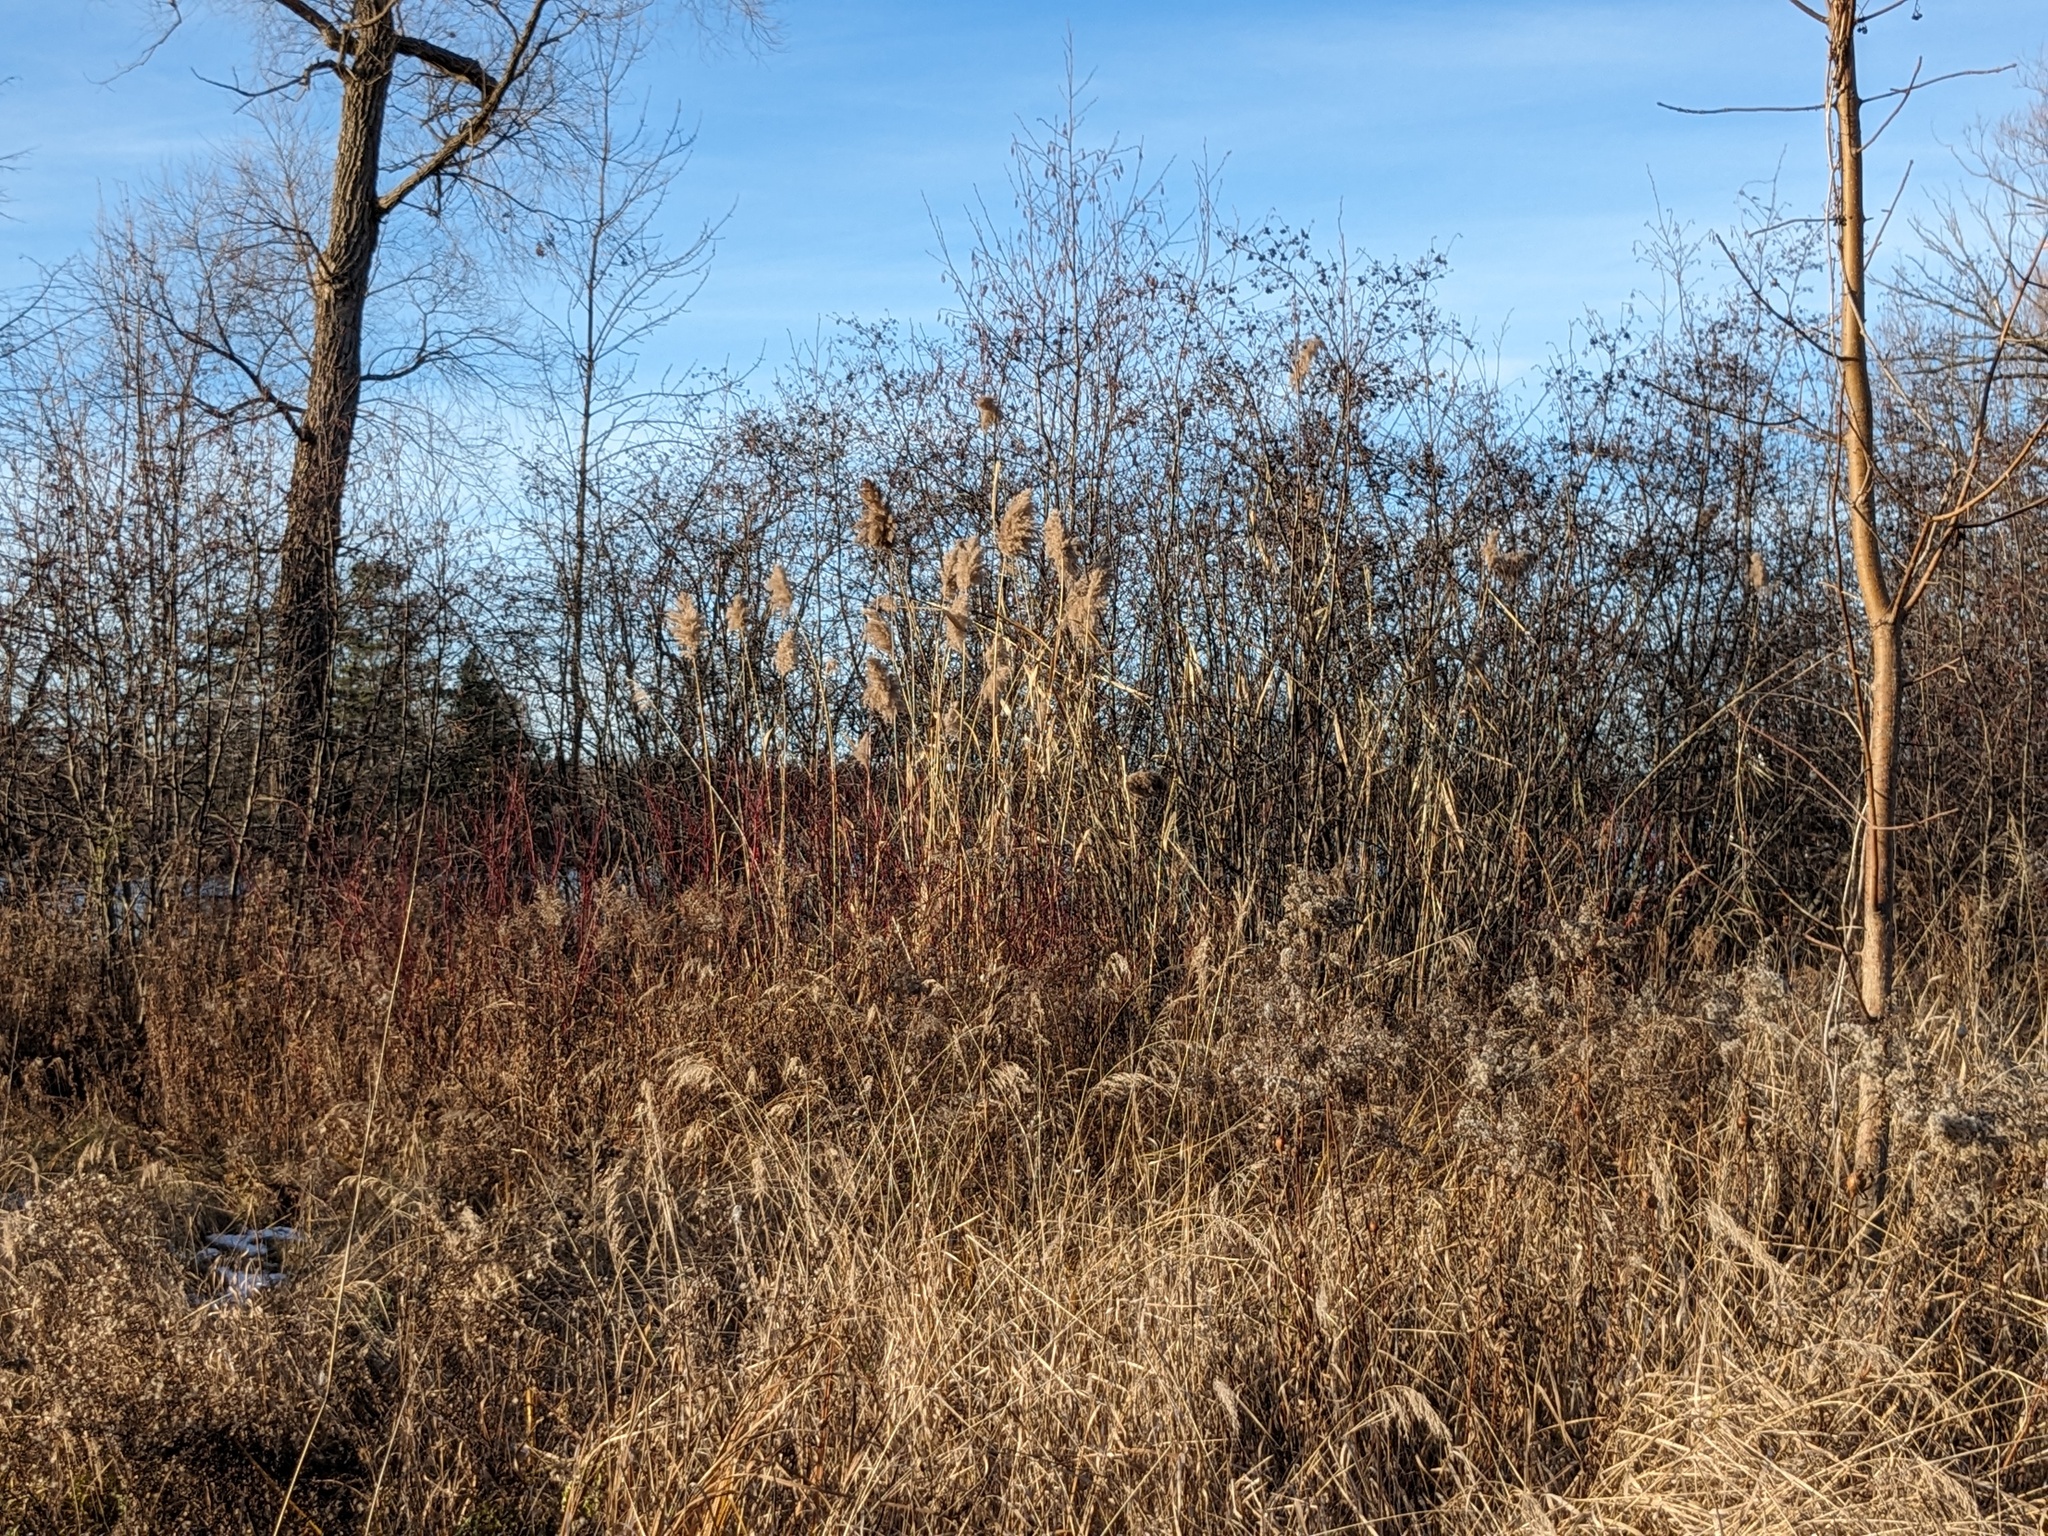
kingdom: Plantae
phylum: Tracheophyta
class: Liliopsida
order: Poales
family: Poaceae
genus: Phragmites
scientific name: Phragmites australis
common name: Common reed
